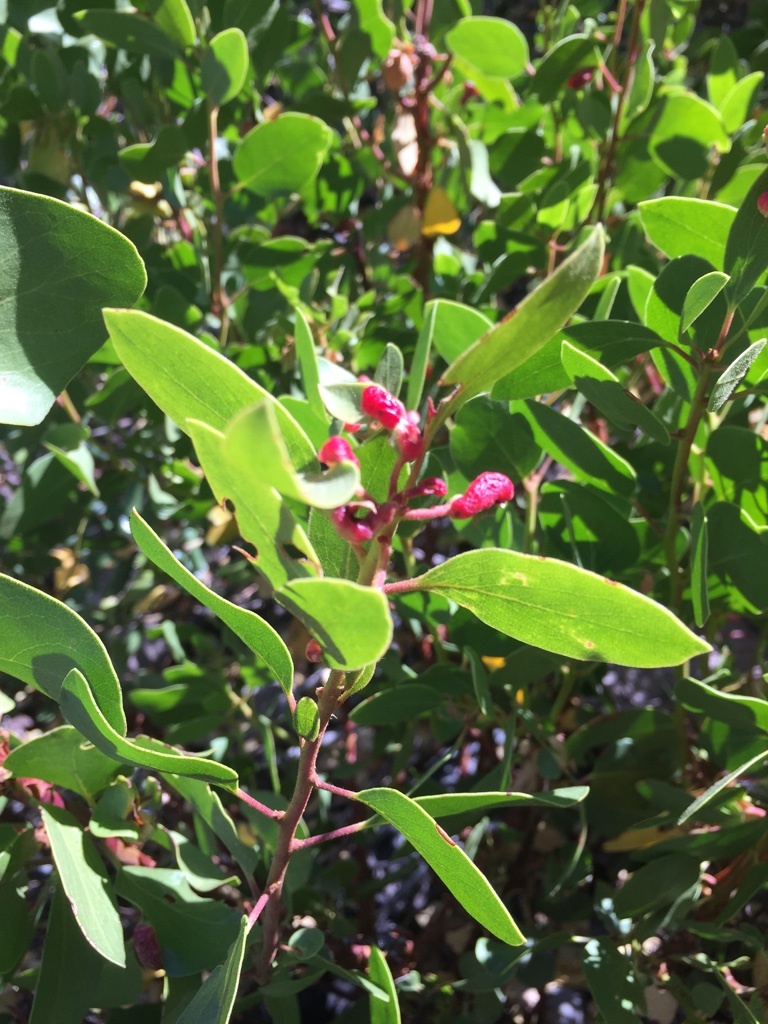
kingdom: Animalia
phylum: Arthropoda
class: Insecta
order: Hemiptera
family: Aphididae
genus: Tamalia
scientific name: Tamalia coweni
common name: Manzanita leafgall aphid
